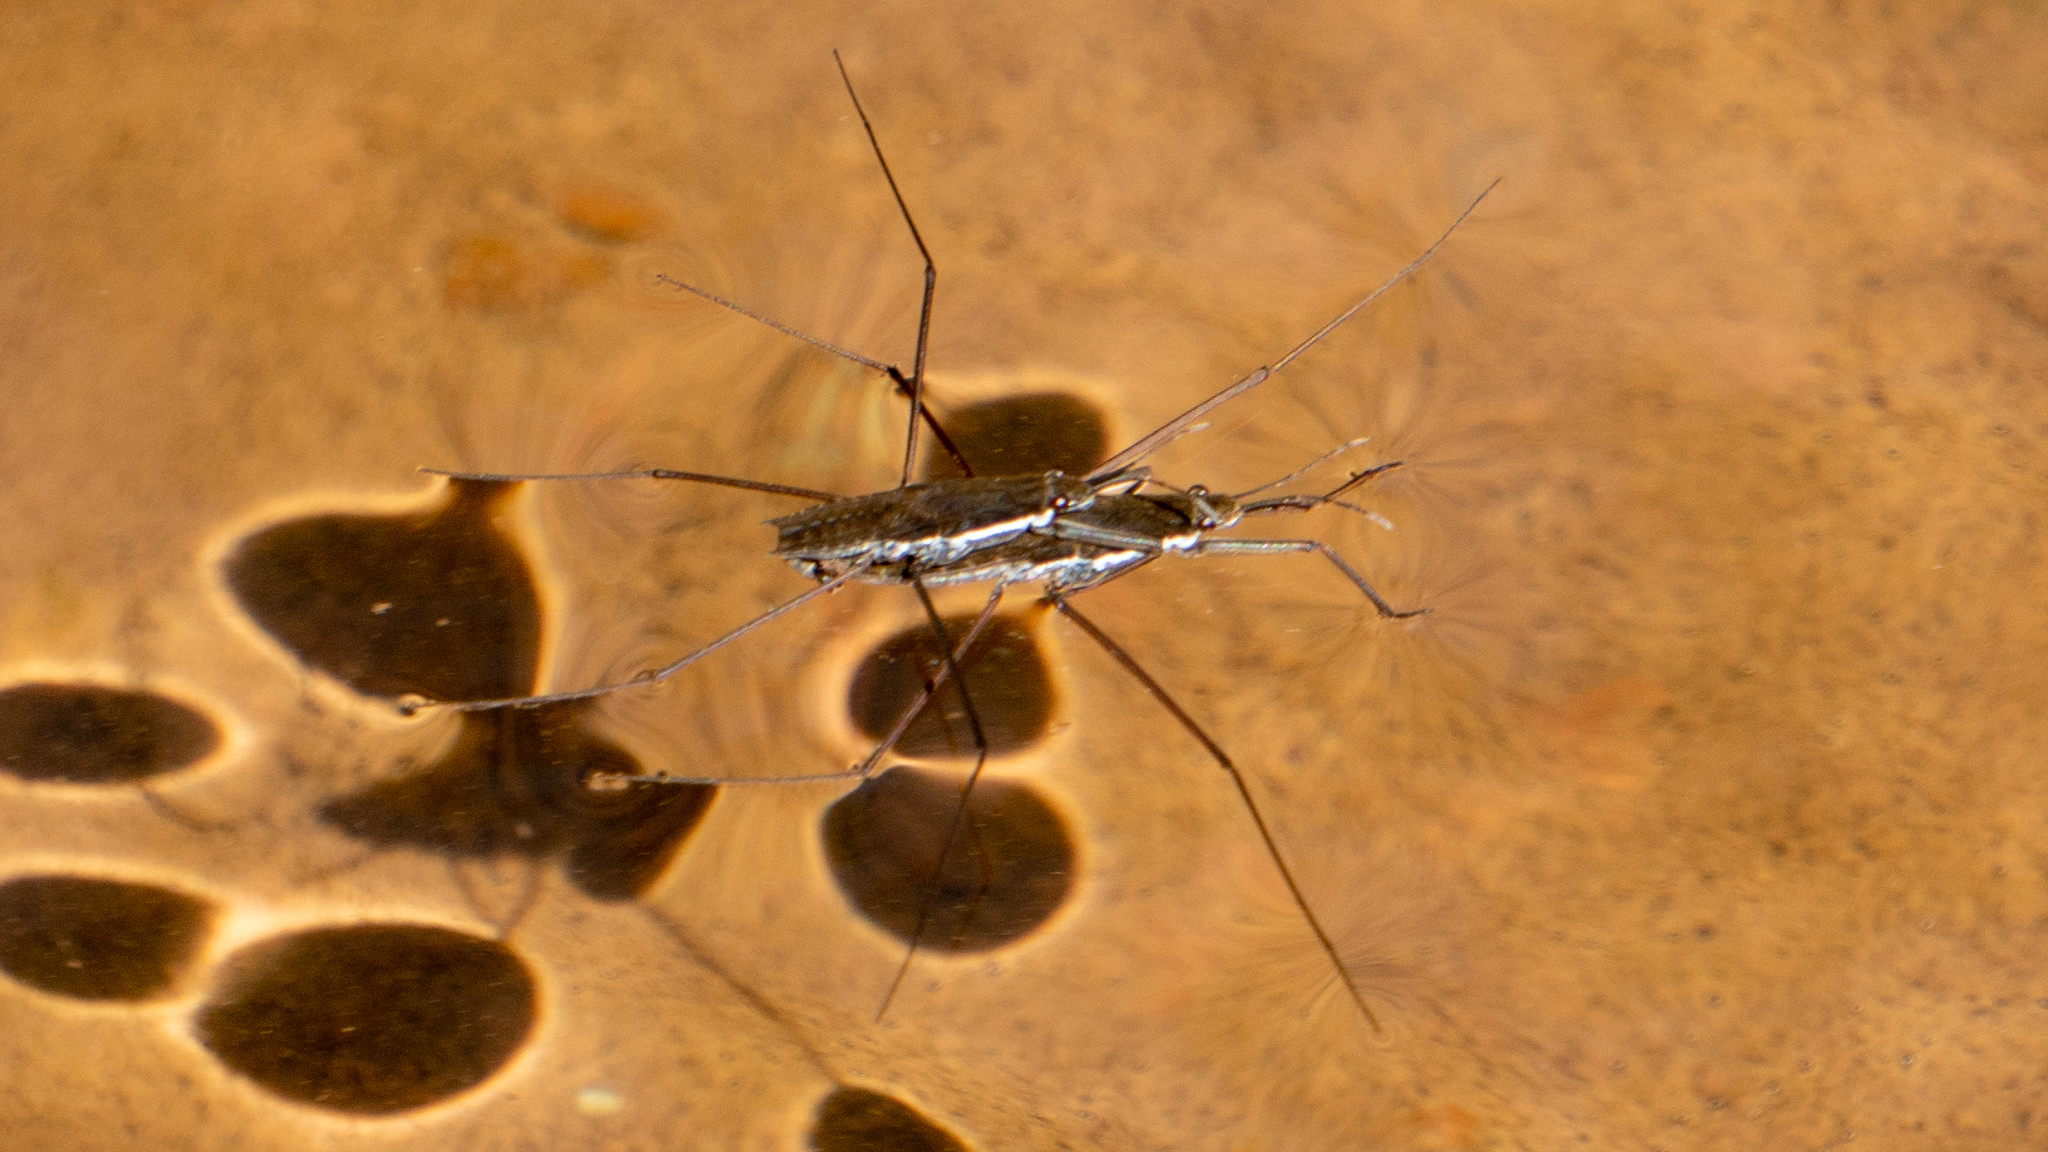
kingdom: Animalia
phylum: Arthropoda
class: Insecta
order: Hemiptera
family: Gerridae
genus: Aquarius
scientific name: Aquarius remigis
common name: Common water strider
